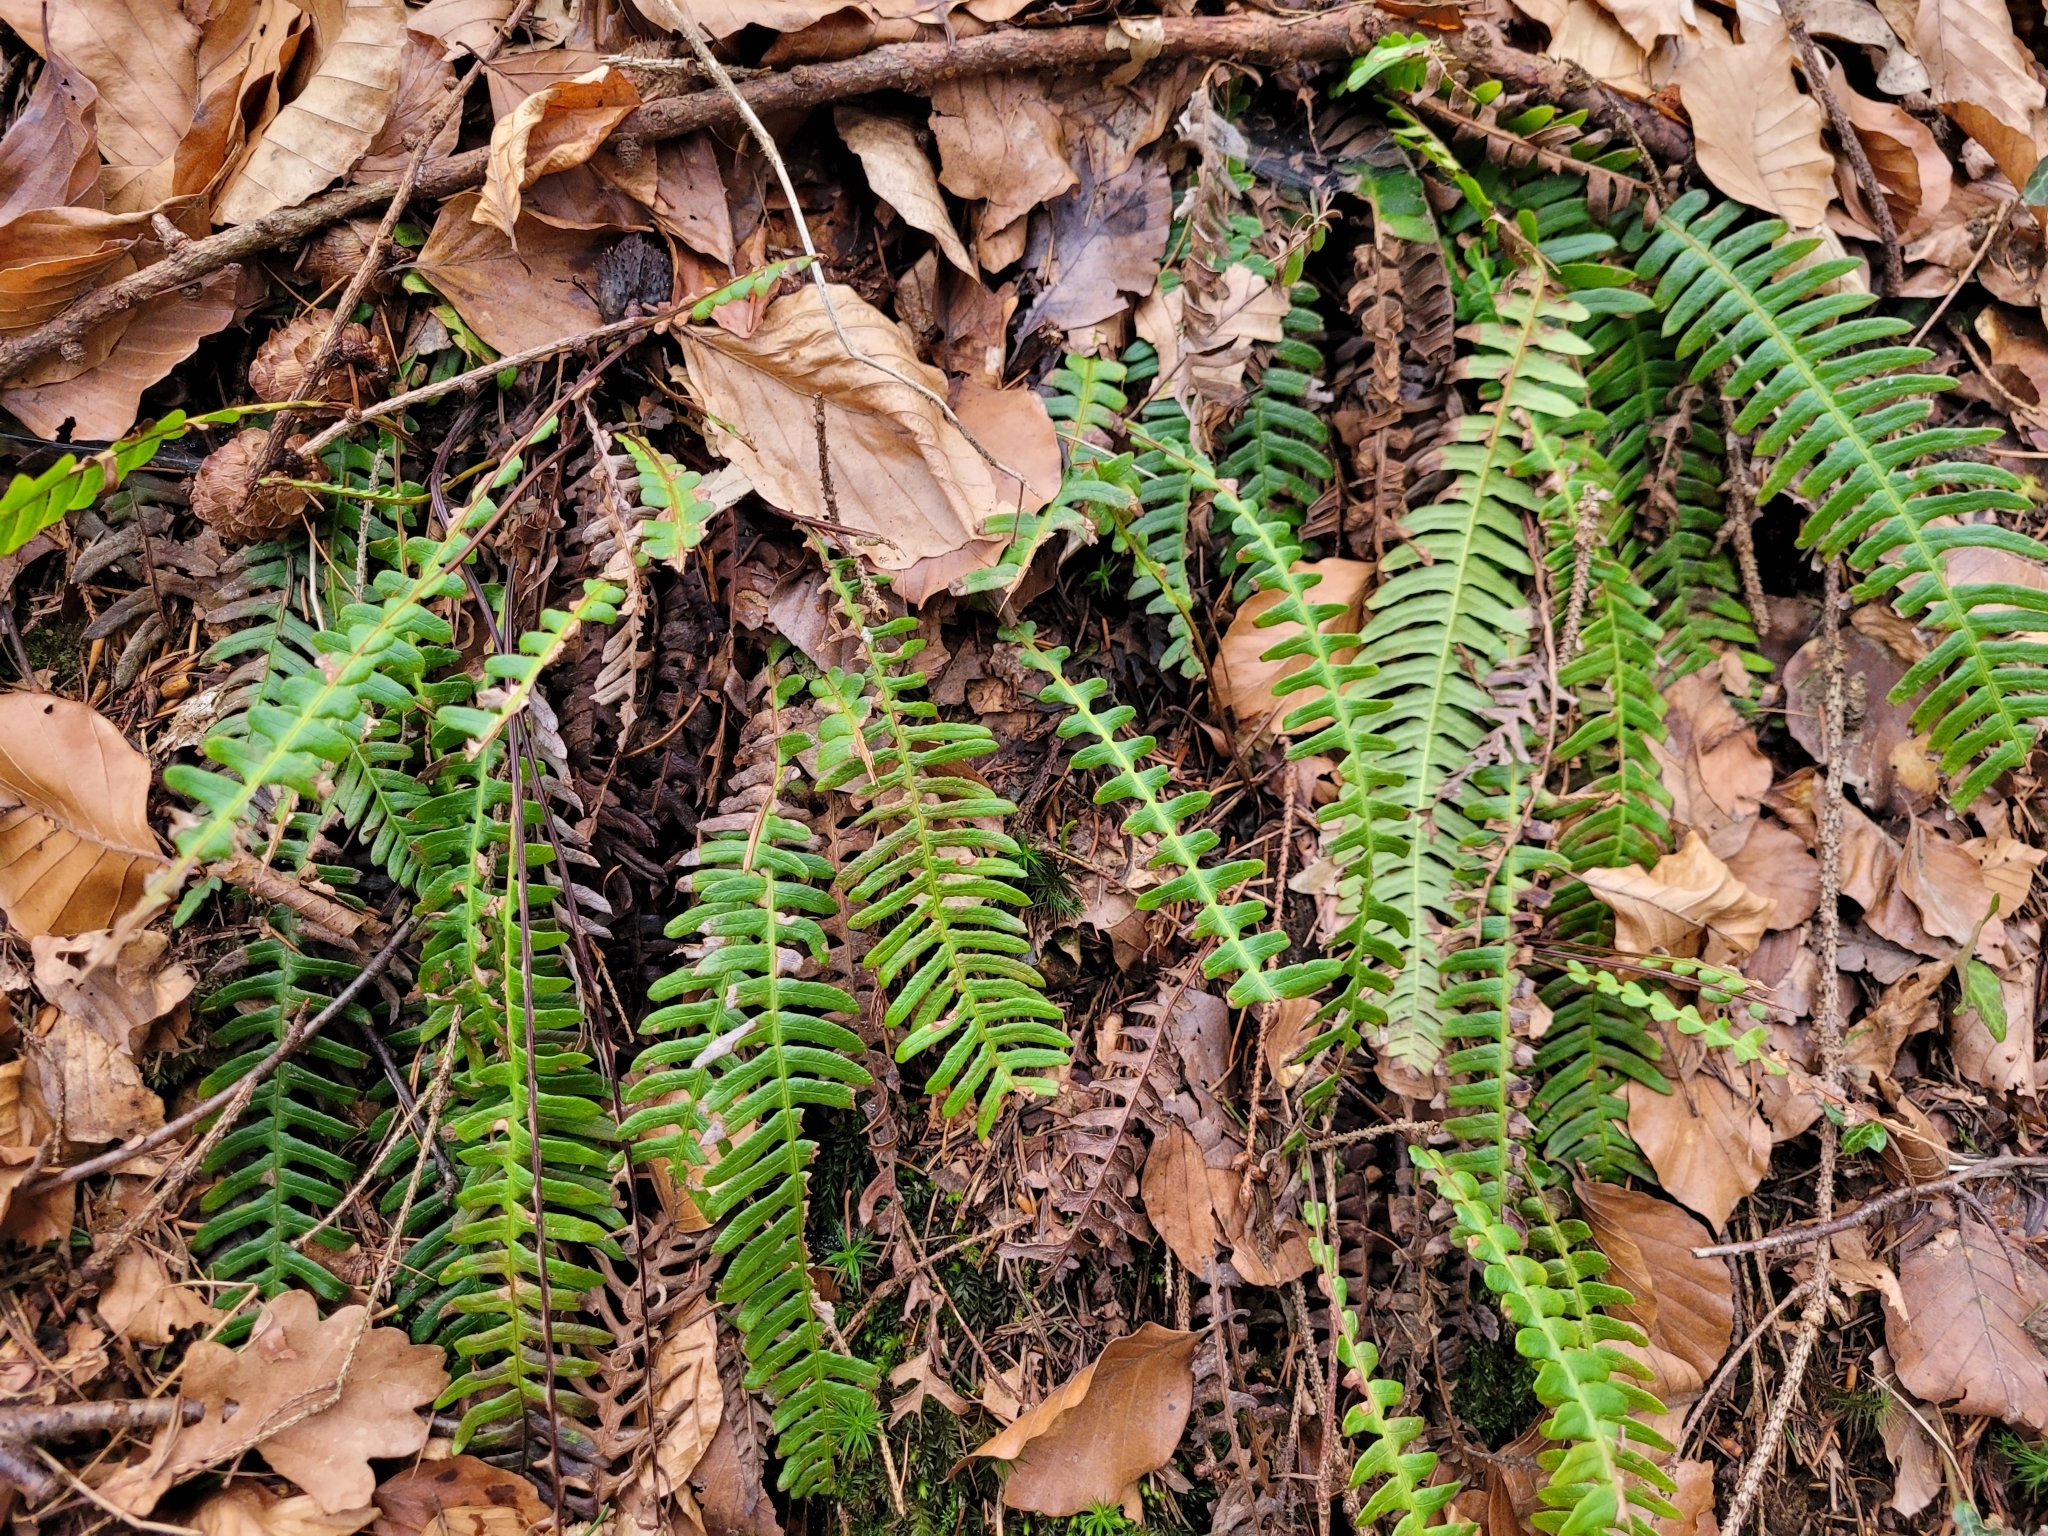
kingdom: Plantae
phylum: Tracheophyta
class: Polypodiopsida
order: Polypodiales
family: Blechnaceae
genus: Struthiopteris
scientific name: Struthiopteris spicant
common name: Deer fern
